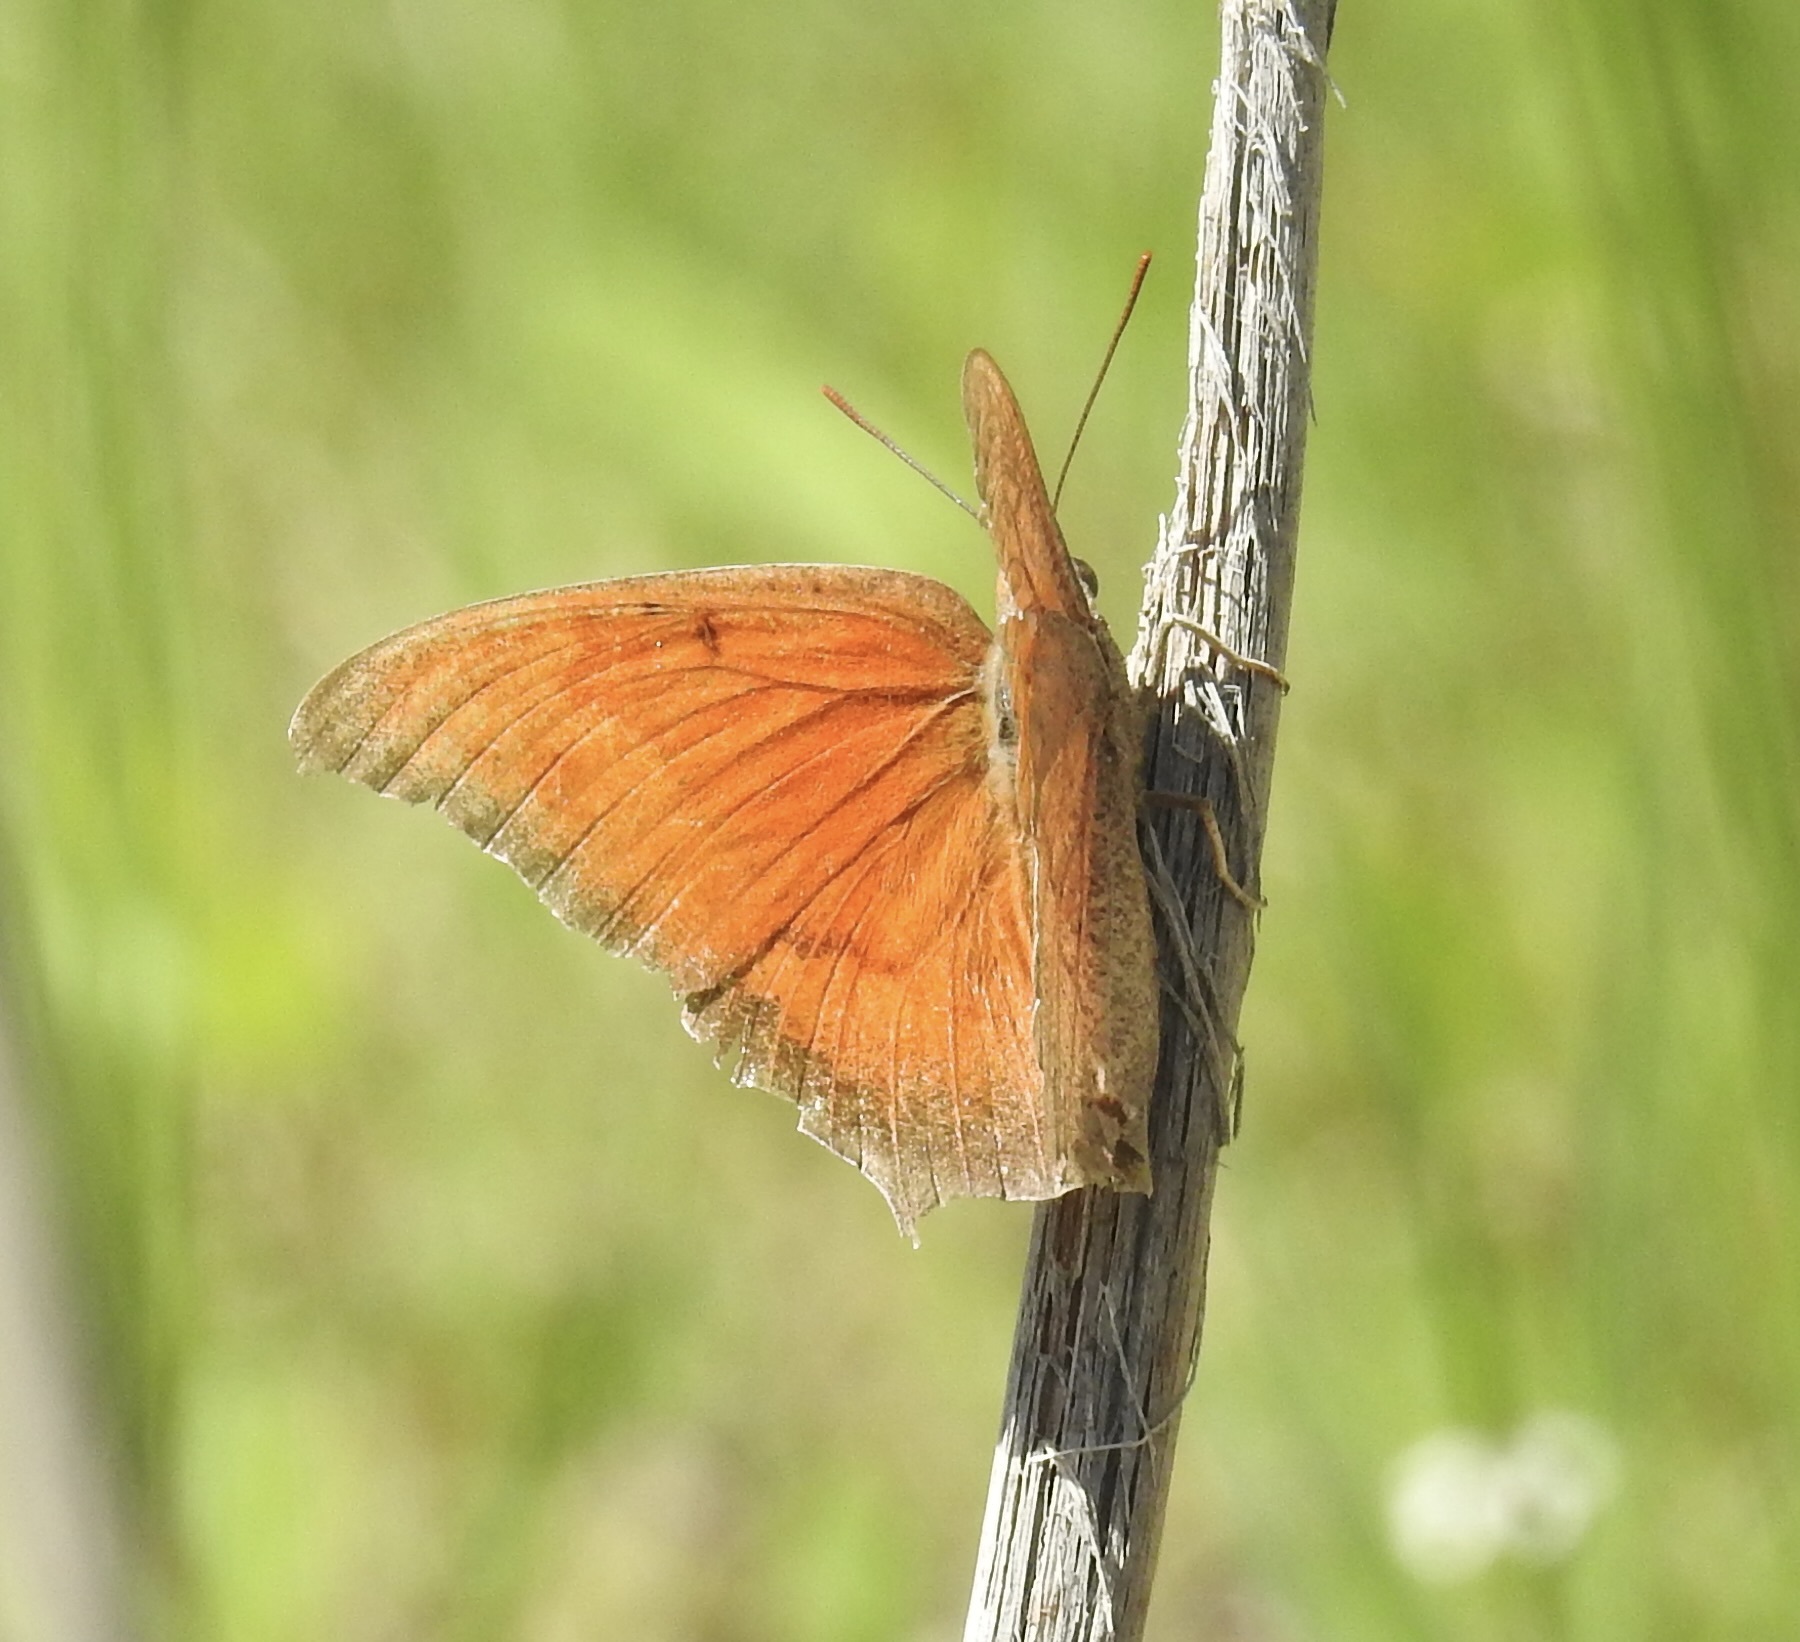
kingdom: Animalia
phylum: Arthropoda
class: Insecta
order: Lepidoptera
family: Nymphalidae
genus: Anaea
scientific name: Anaea andria
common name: Goatweed leafwing
